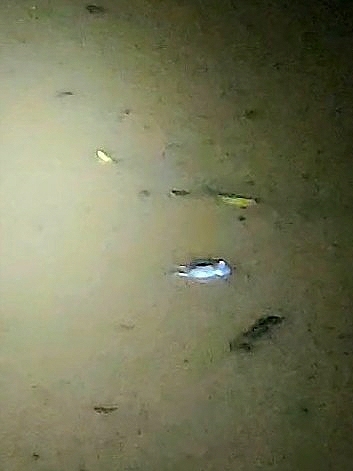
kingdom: Animalia
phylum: Chordata
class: Squamata
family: Colubridae
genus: Fowlea
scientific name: Fowlea piscator
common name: Asiatic water snake
